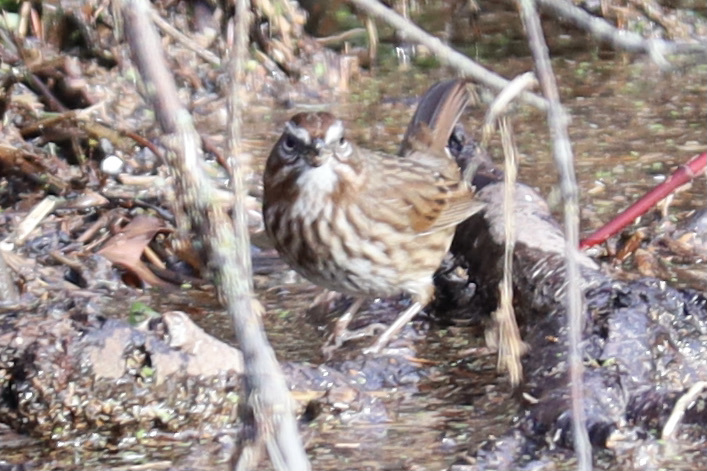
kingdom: Animalia
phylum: Chordata
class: Aves
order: Passeriformes
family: Passerellidae
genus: Melospiza
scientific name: Melospiza melodia
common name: Song sparrow
